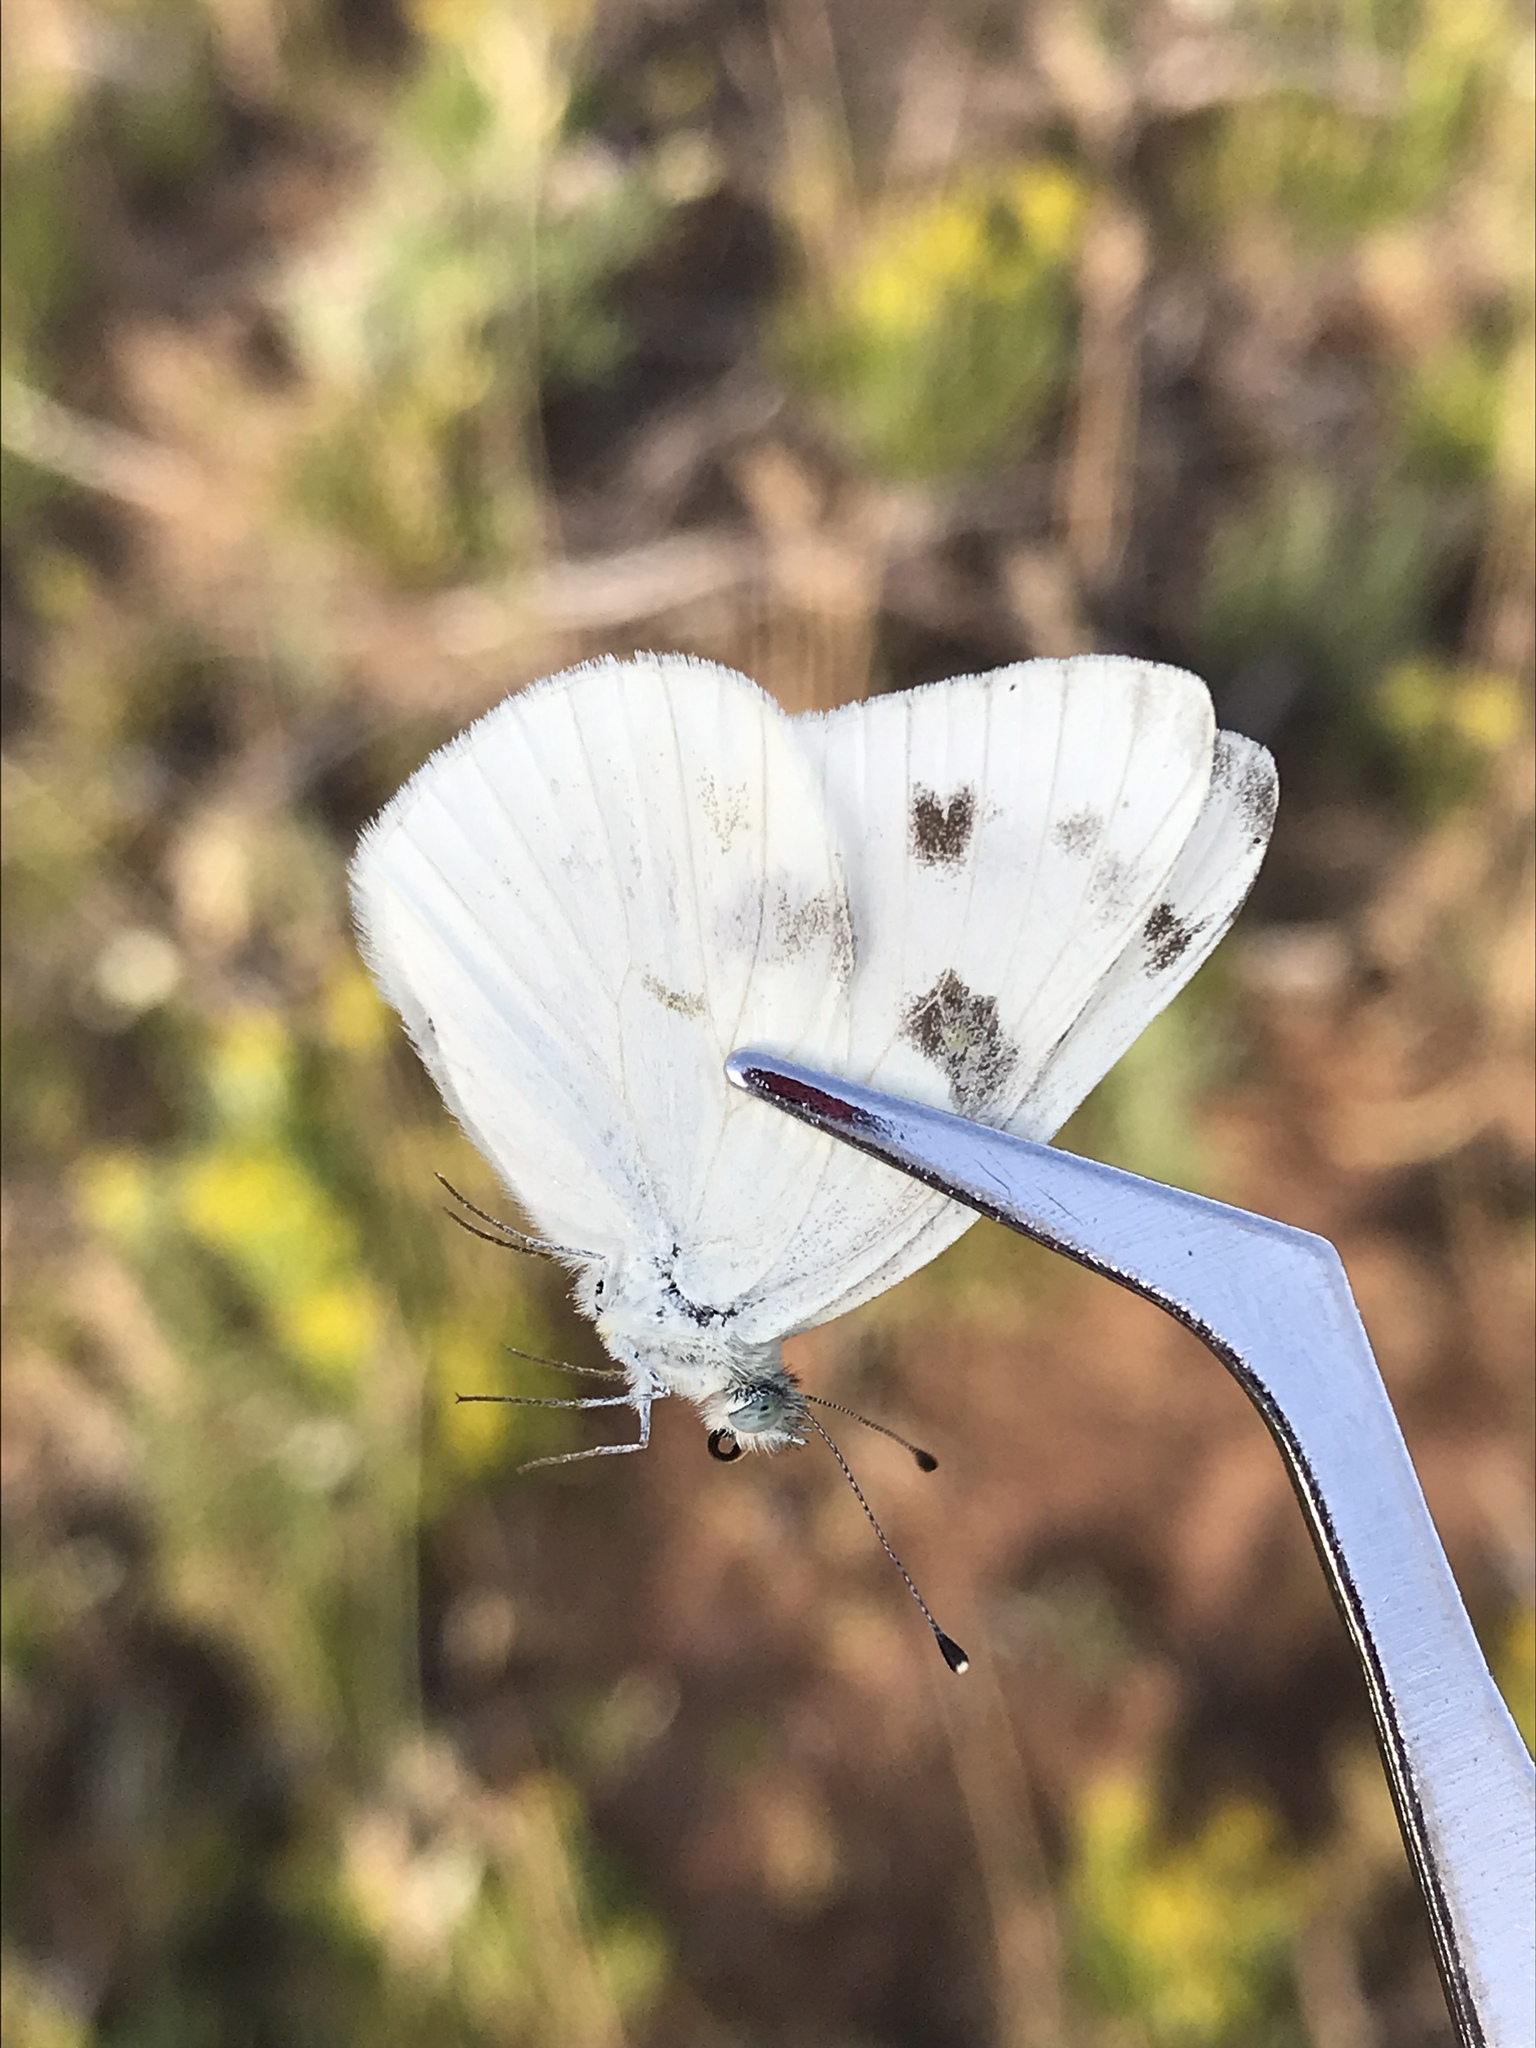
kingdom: Animalia
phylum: Arthropoda
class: Insecta
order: Lepidoptera
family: Pieridae
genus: Pontia
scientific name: Pontia protodice
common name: Checkered white
